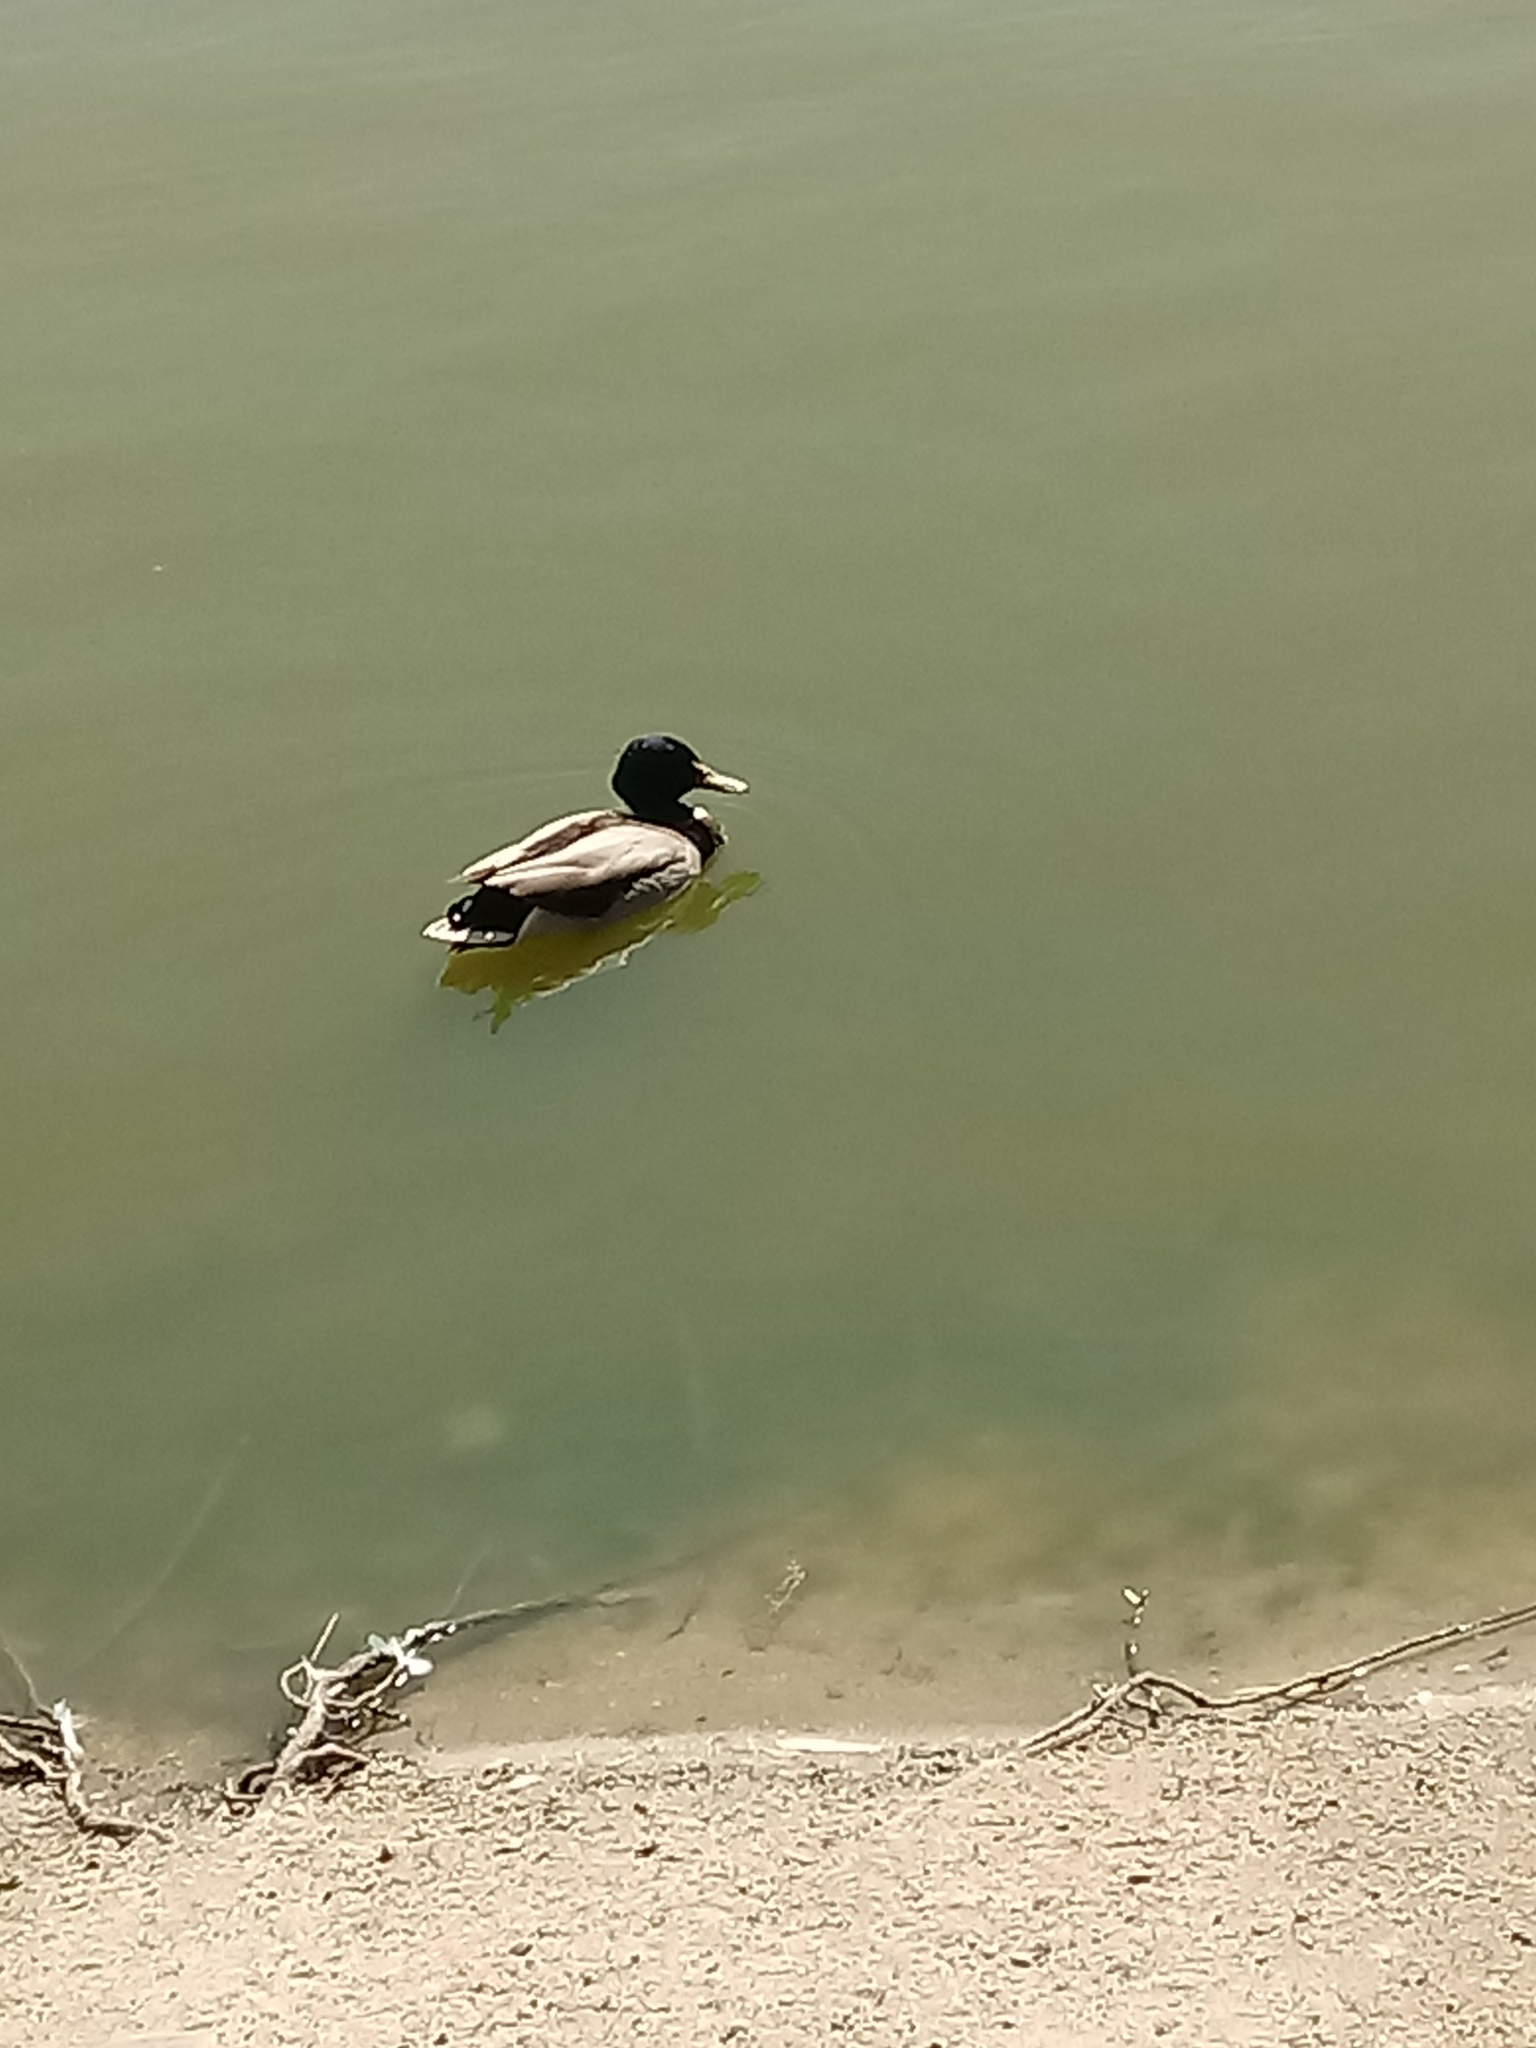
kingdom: Animalia
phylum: Chordata
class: Aves
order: Anseriformes
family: Anatidae
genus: Anas
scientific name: Anas platyrhynchos
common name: Mallard
